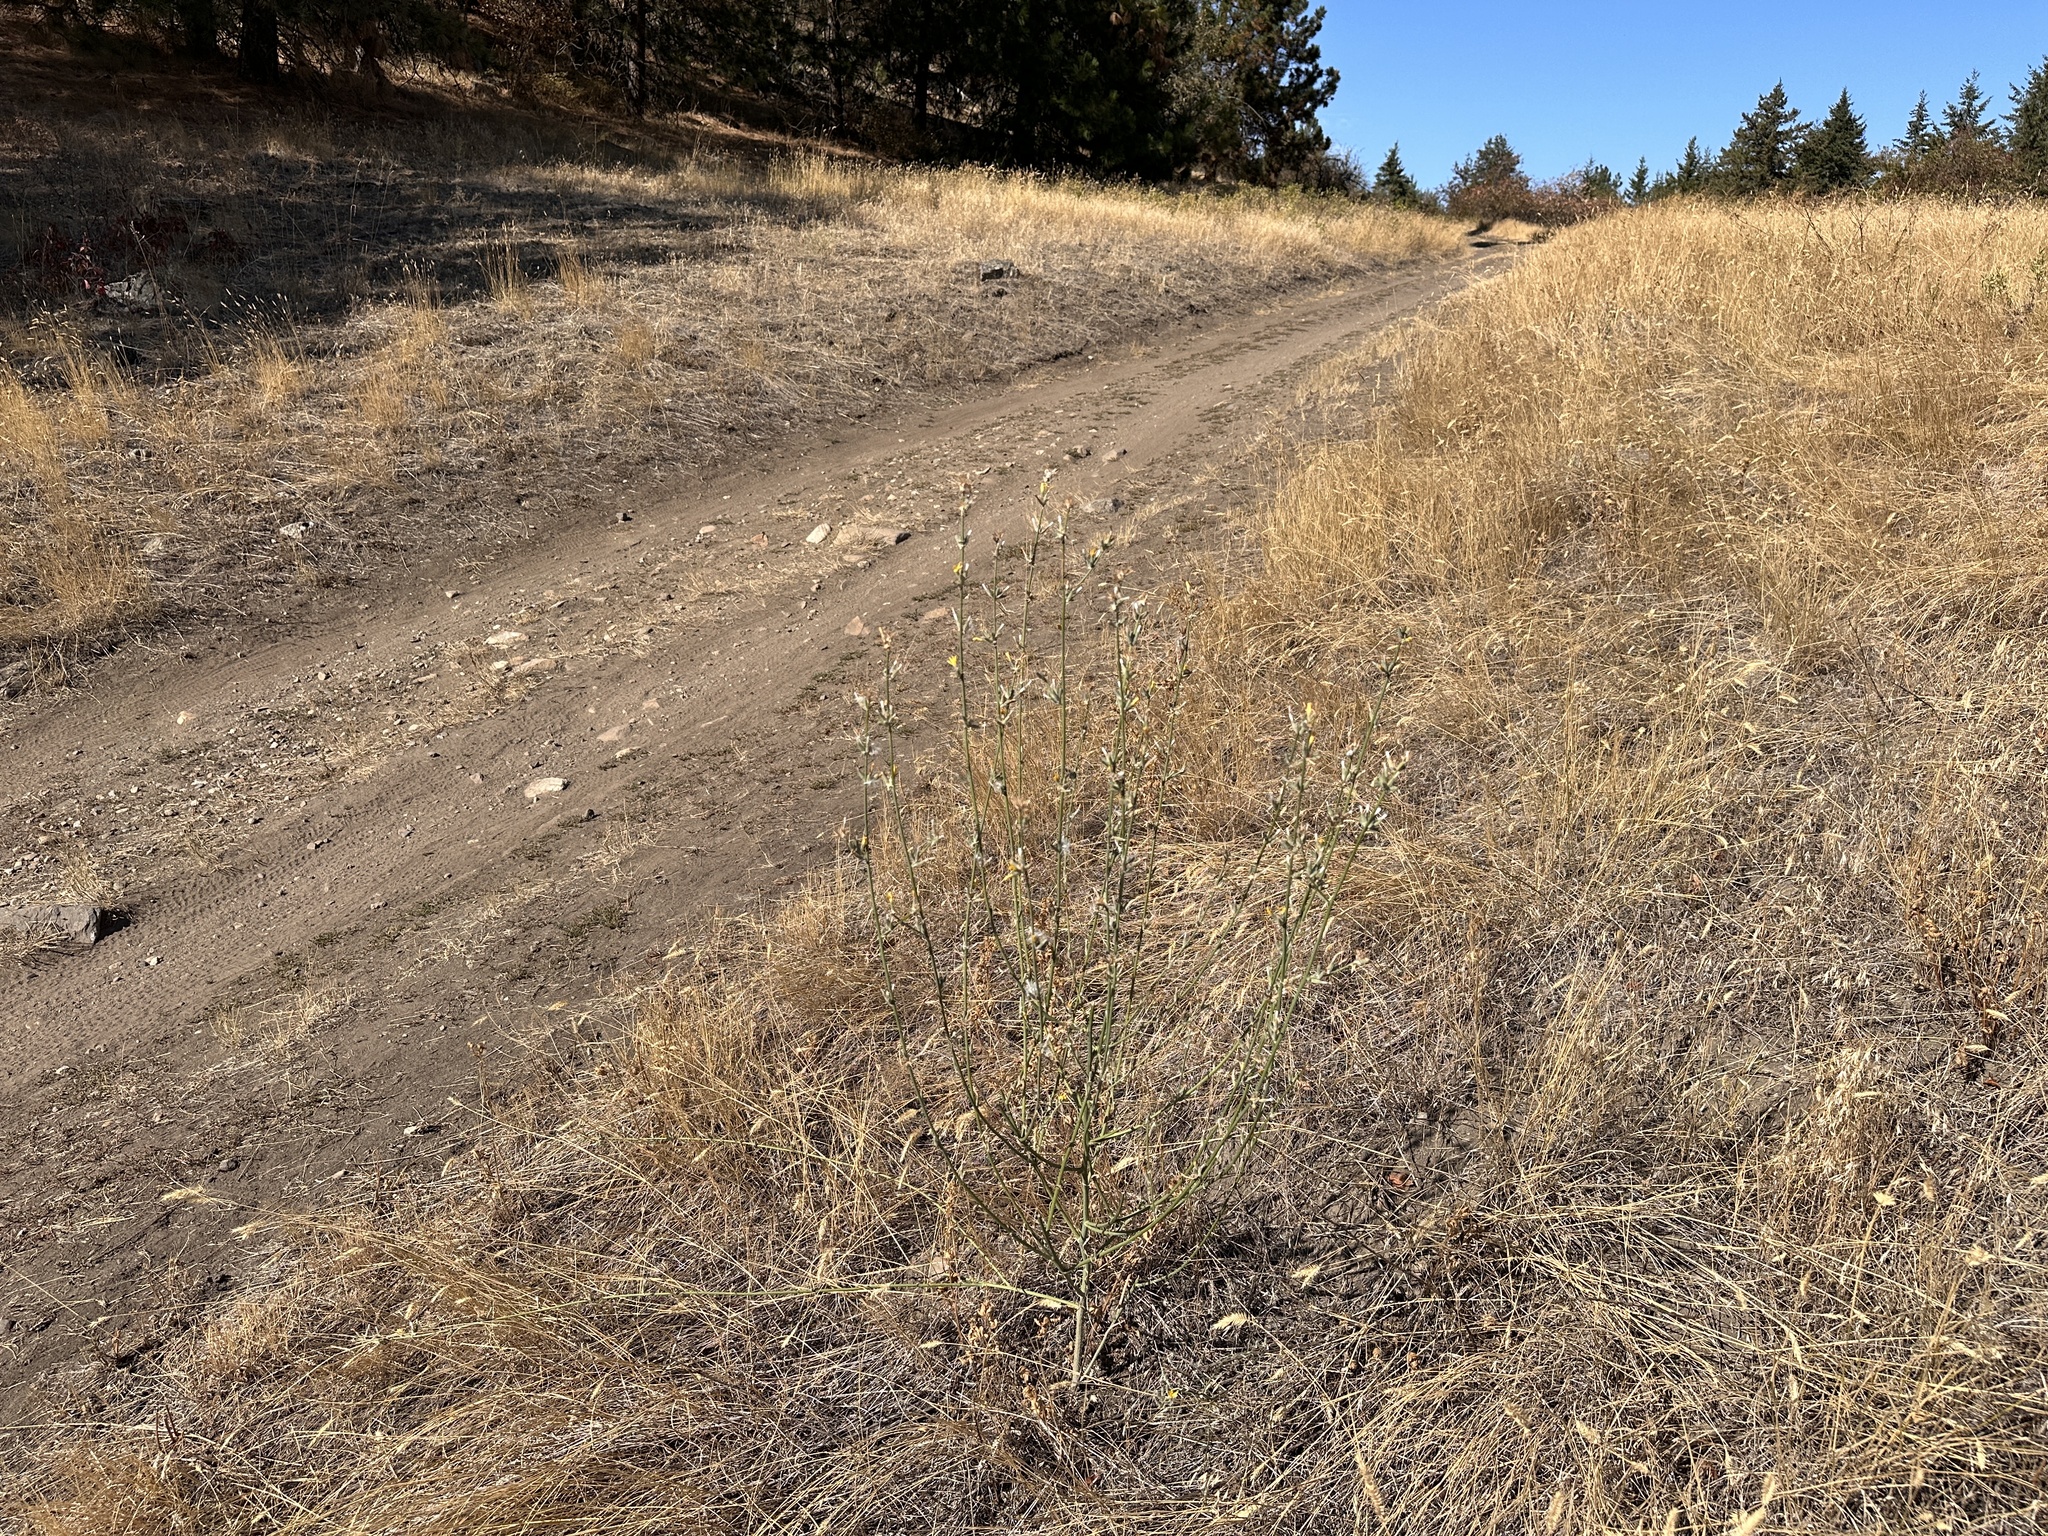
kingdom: Plantae
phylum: Tracheophyta
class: Magnoliopsida
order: Asterales
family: Asteraceae
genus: Chondrilla
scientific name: Chondrilla juncea
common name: Skeleton weed
